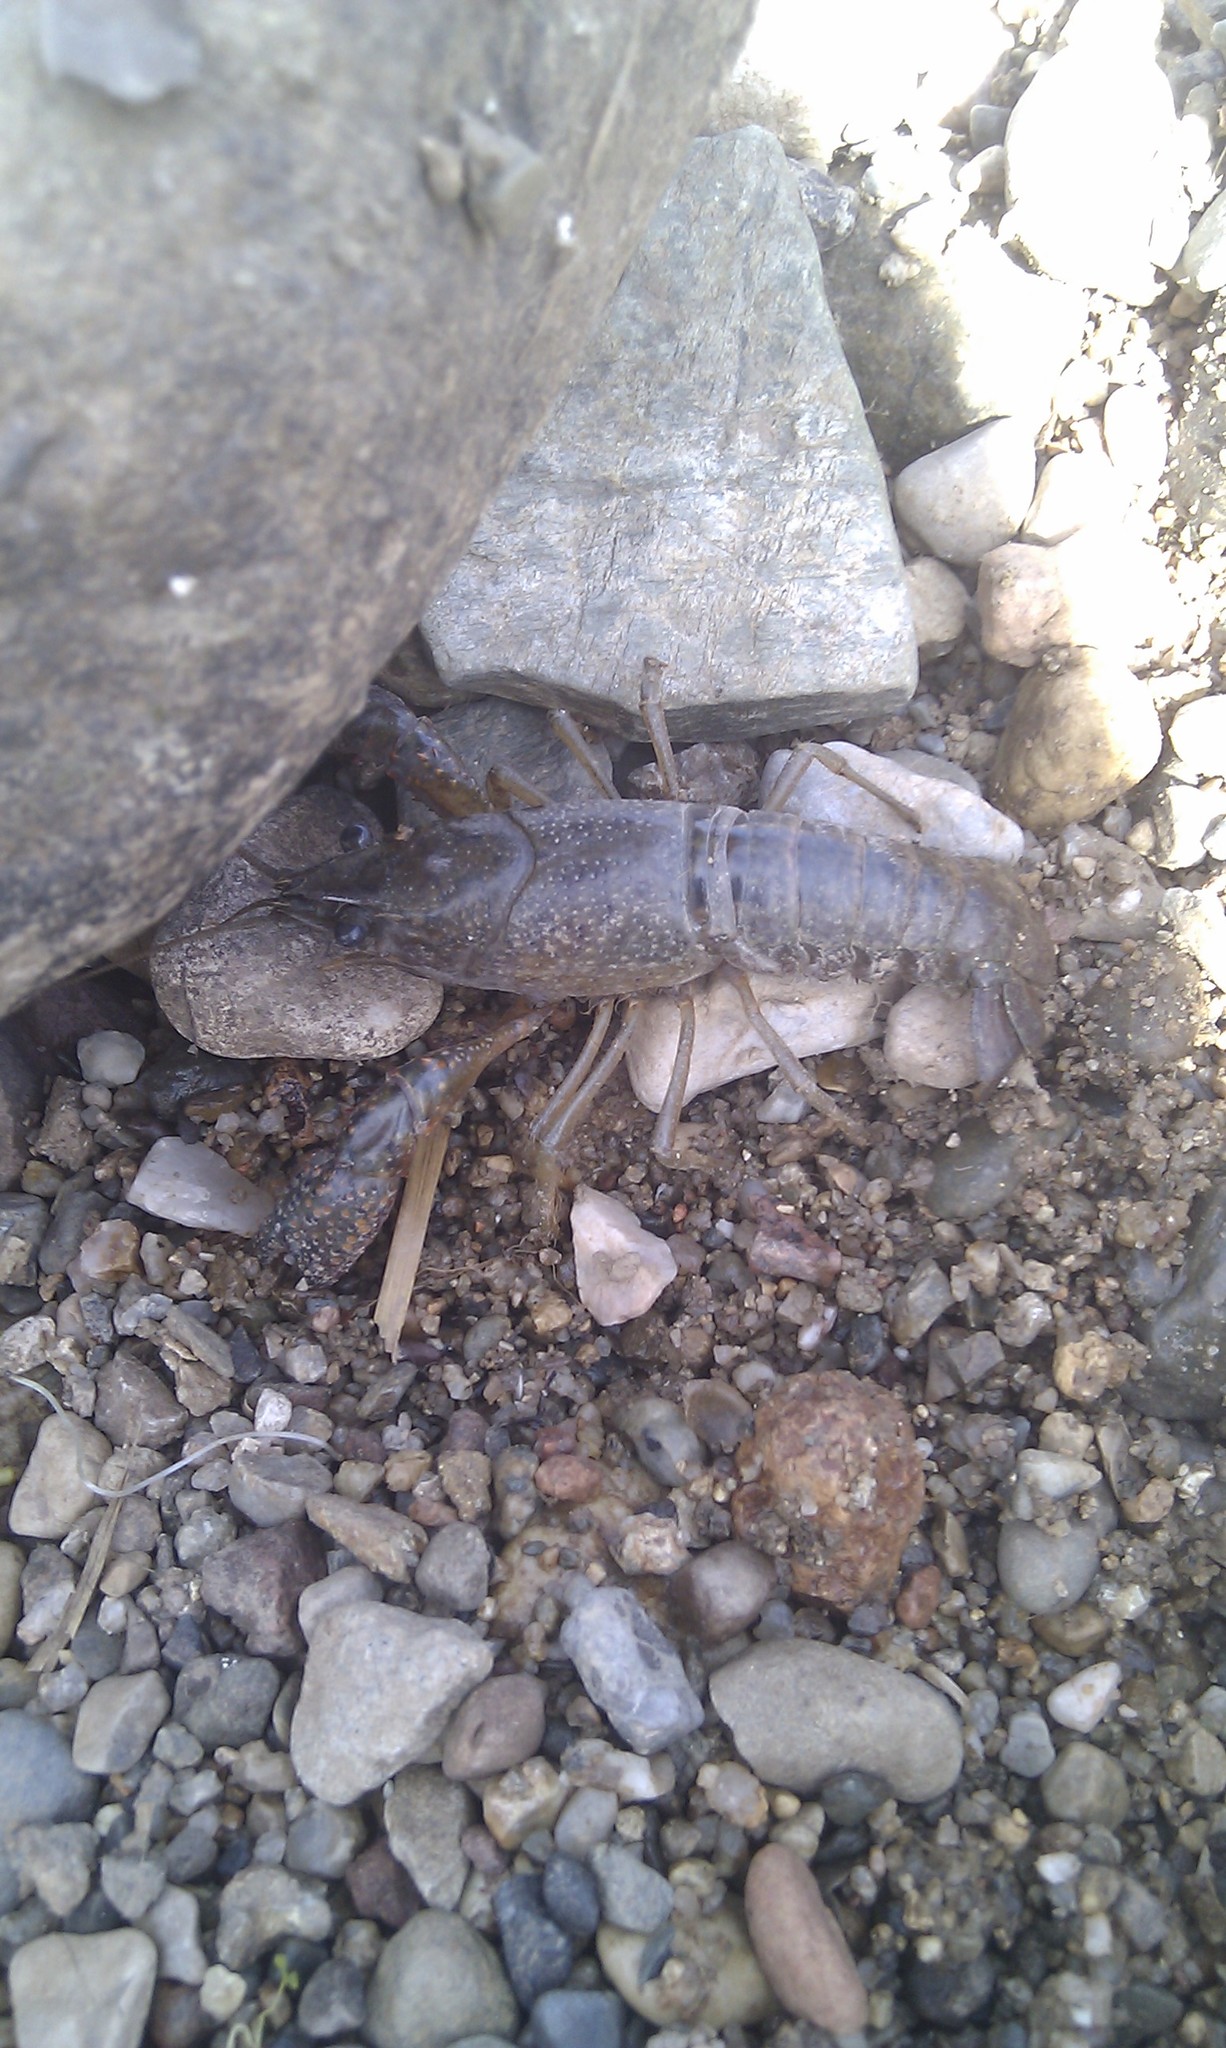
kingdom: Animalia
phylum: Arthropoda
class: Malacostraca
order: Decapoda
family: Cambaridae
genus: Procambarus
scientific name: Procambarus clarkii
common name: Red swamp crayfish
